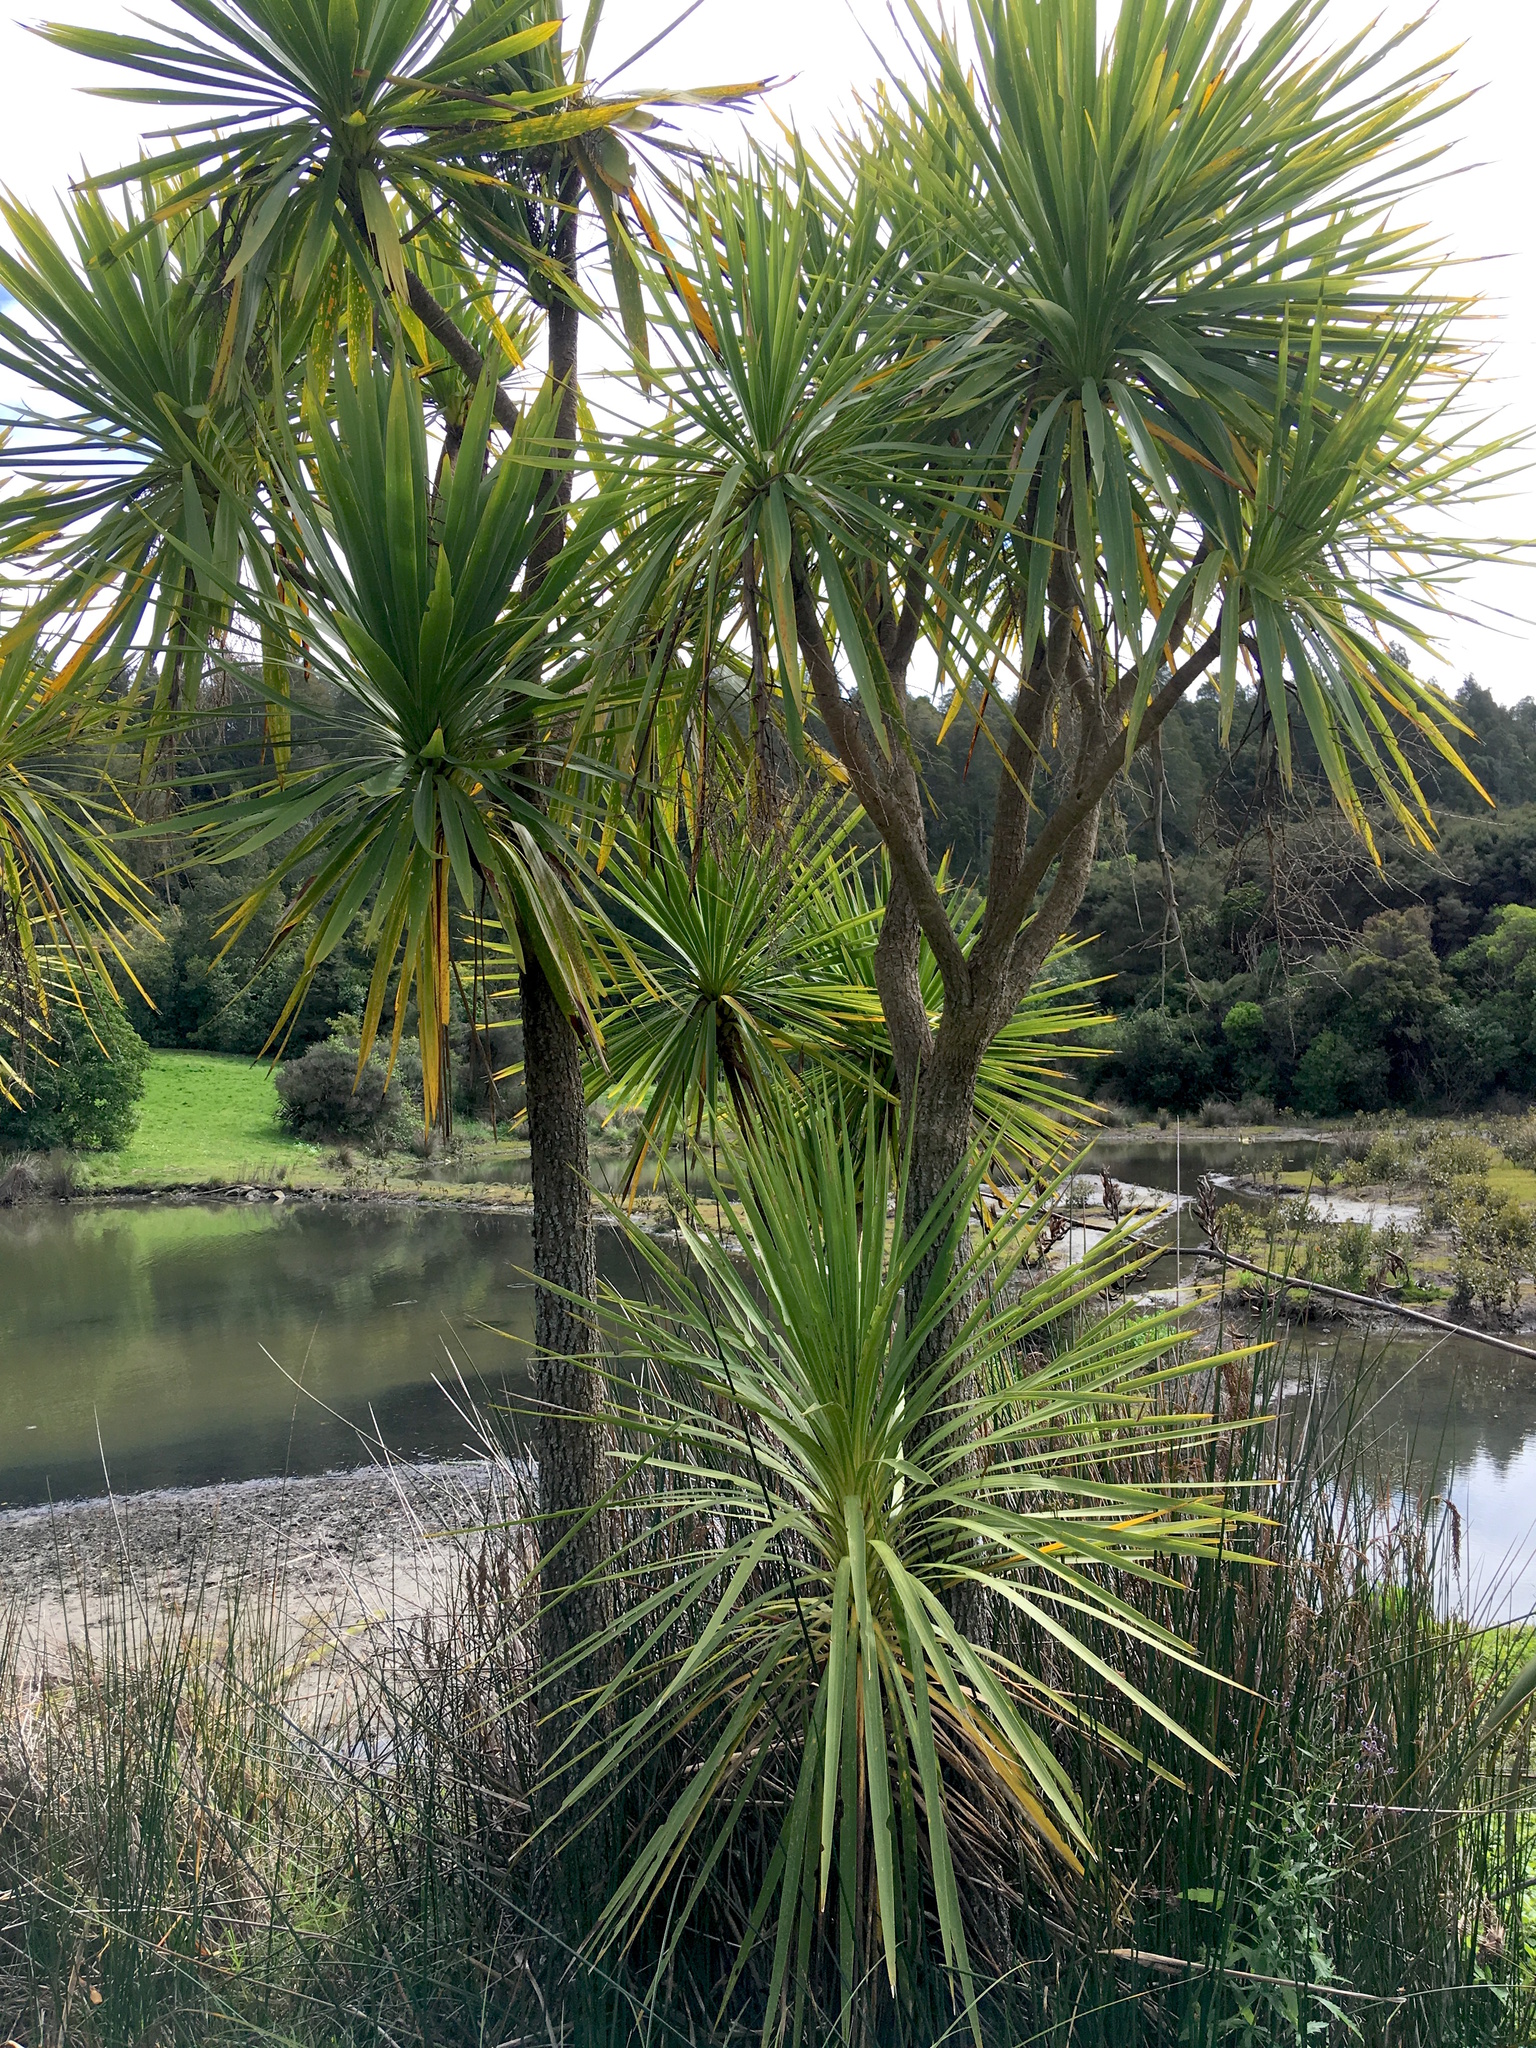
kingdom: Plantae
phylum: Tracheophyta
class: Liliopsida
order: Asparagales
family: Asparagaceae
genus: Cordyline
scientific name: Cordyline australis
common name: Cabbage-palm
